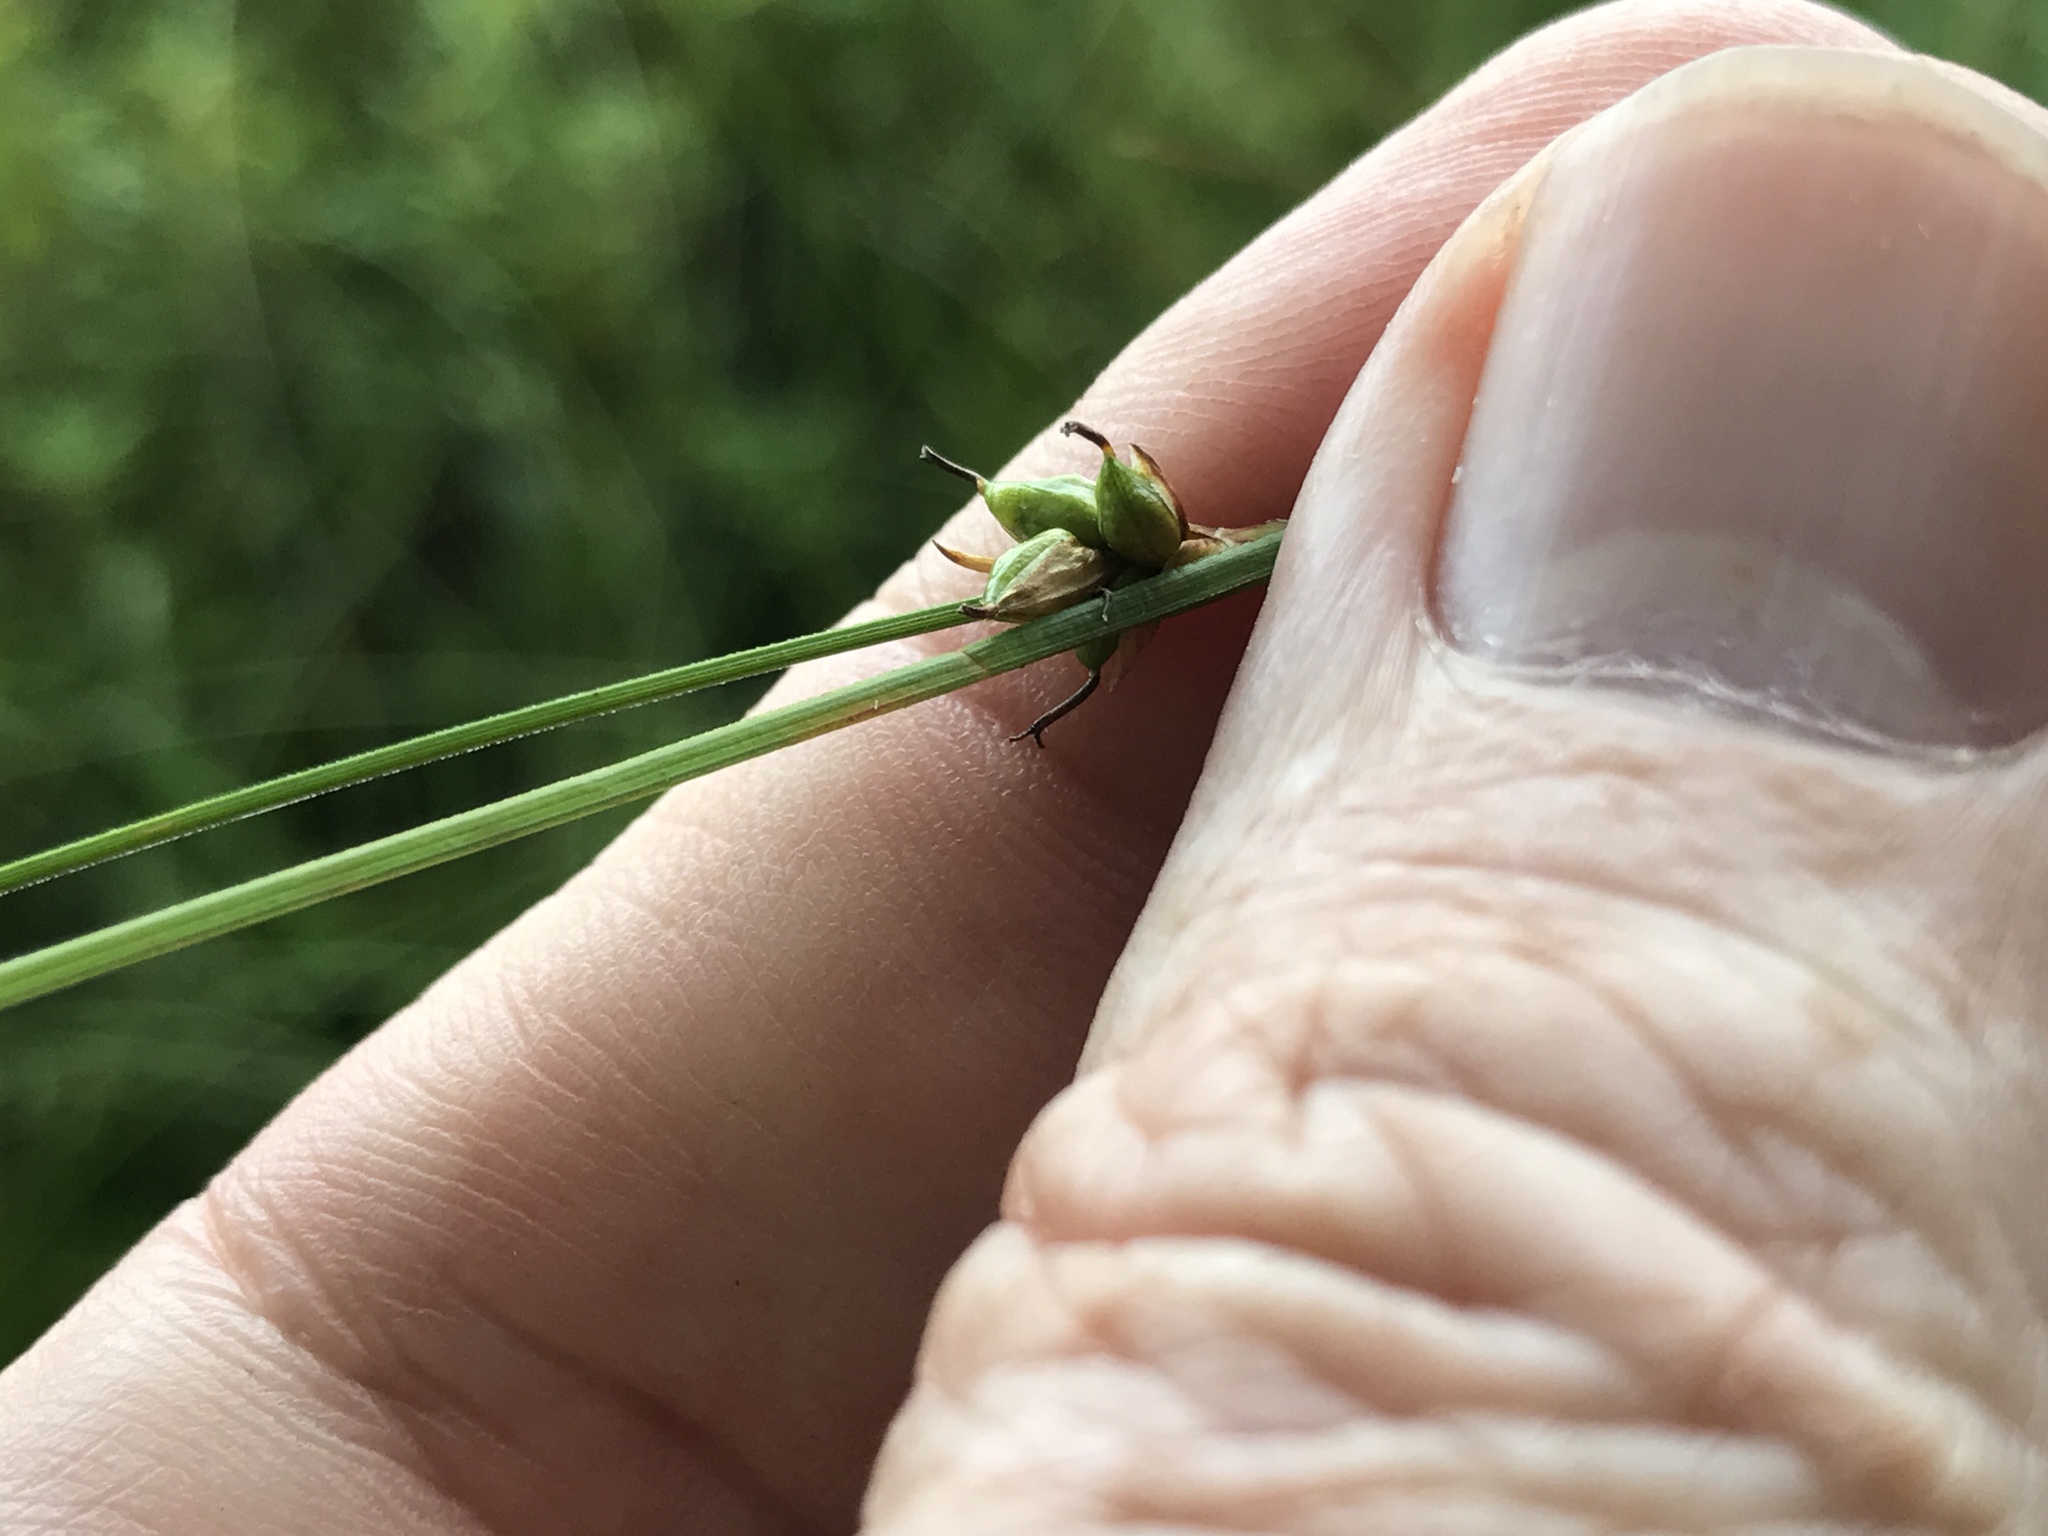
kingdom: Plantae
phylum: Tracheophyta
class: Liliopsida
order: Poales
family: Cyperaceae
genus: Carex
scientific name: Carex oligosperma
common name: Few-seed sedge
